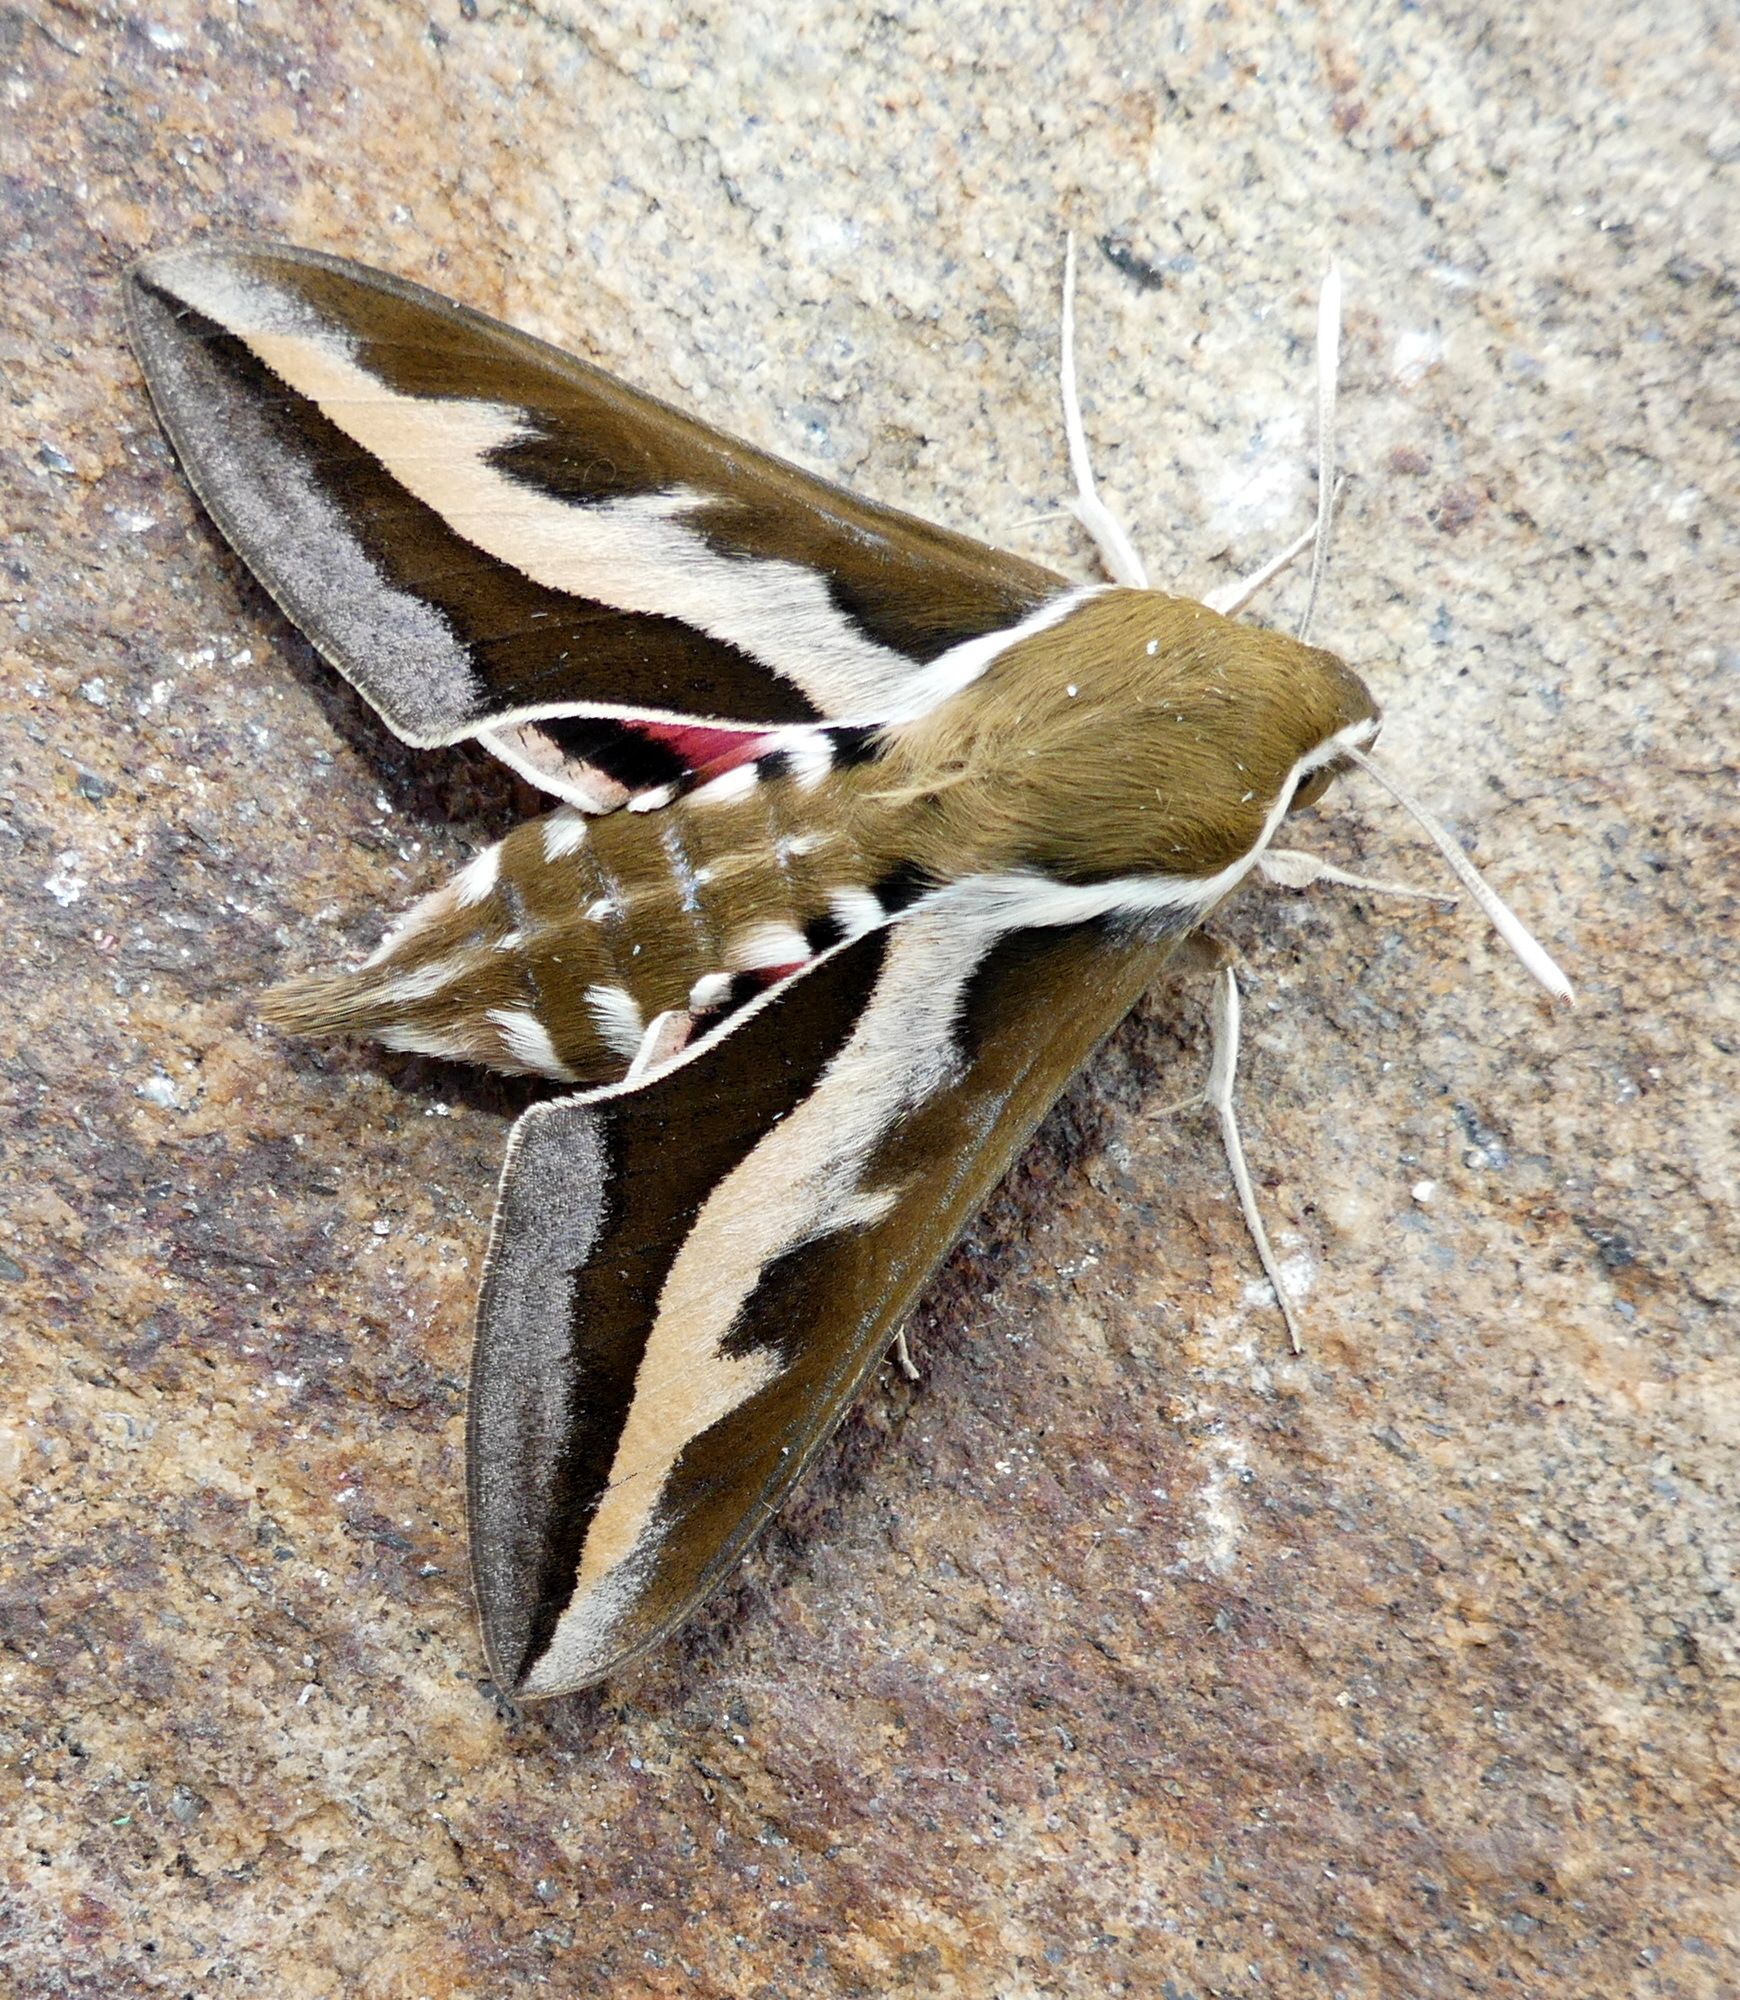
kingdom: Animalia
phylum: Arthropoda
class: Insecta
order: Lepidoptera
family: Sphingidae
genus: Hyles
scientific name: Hyles gallii
